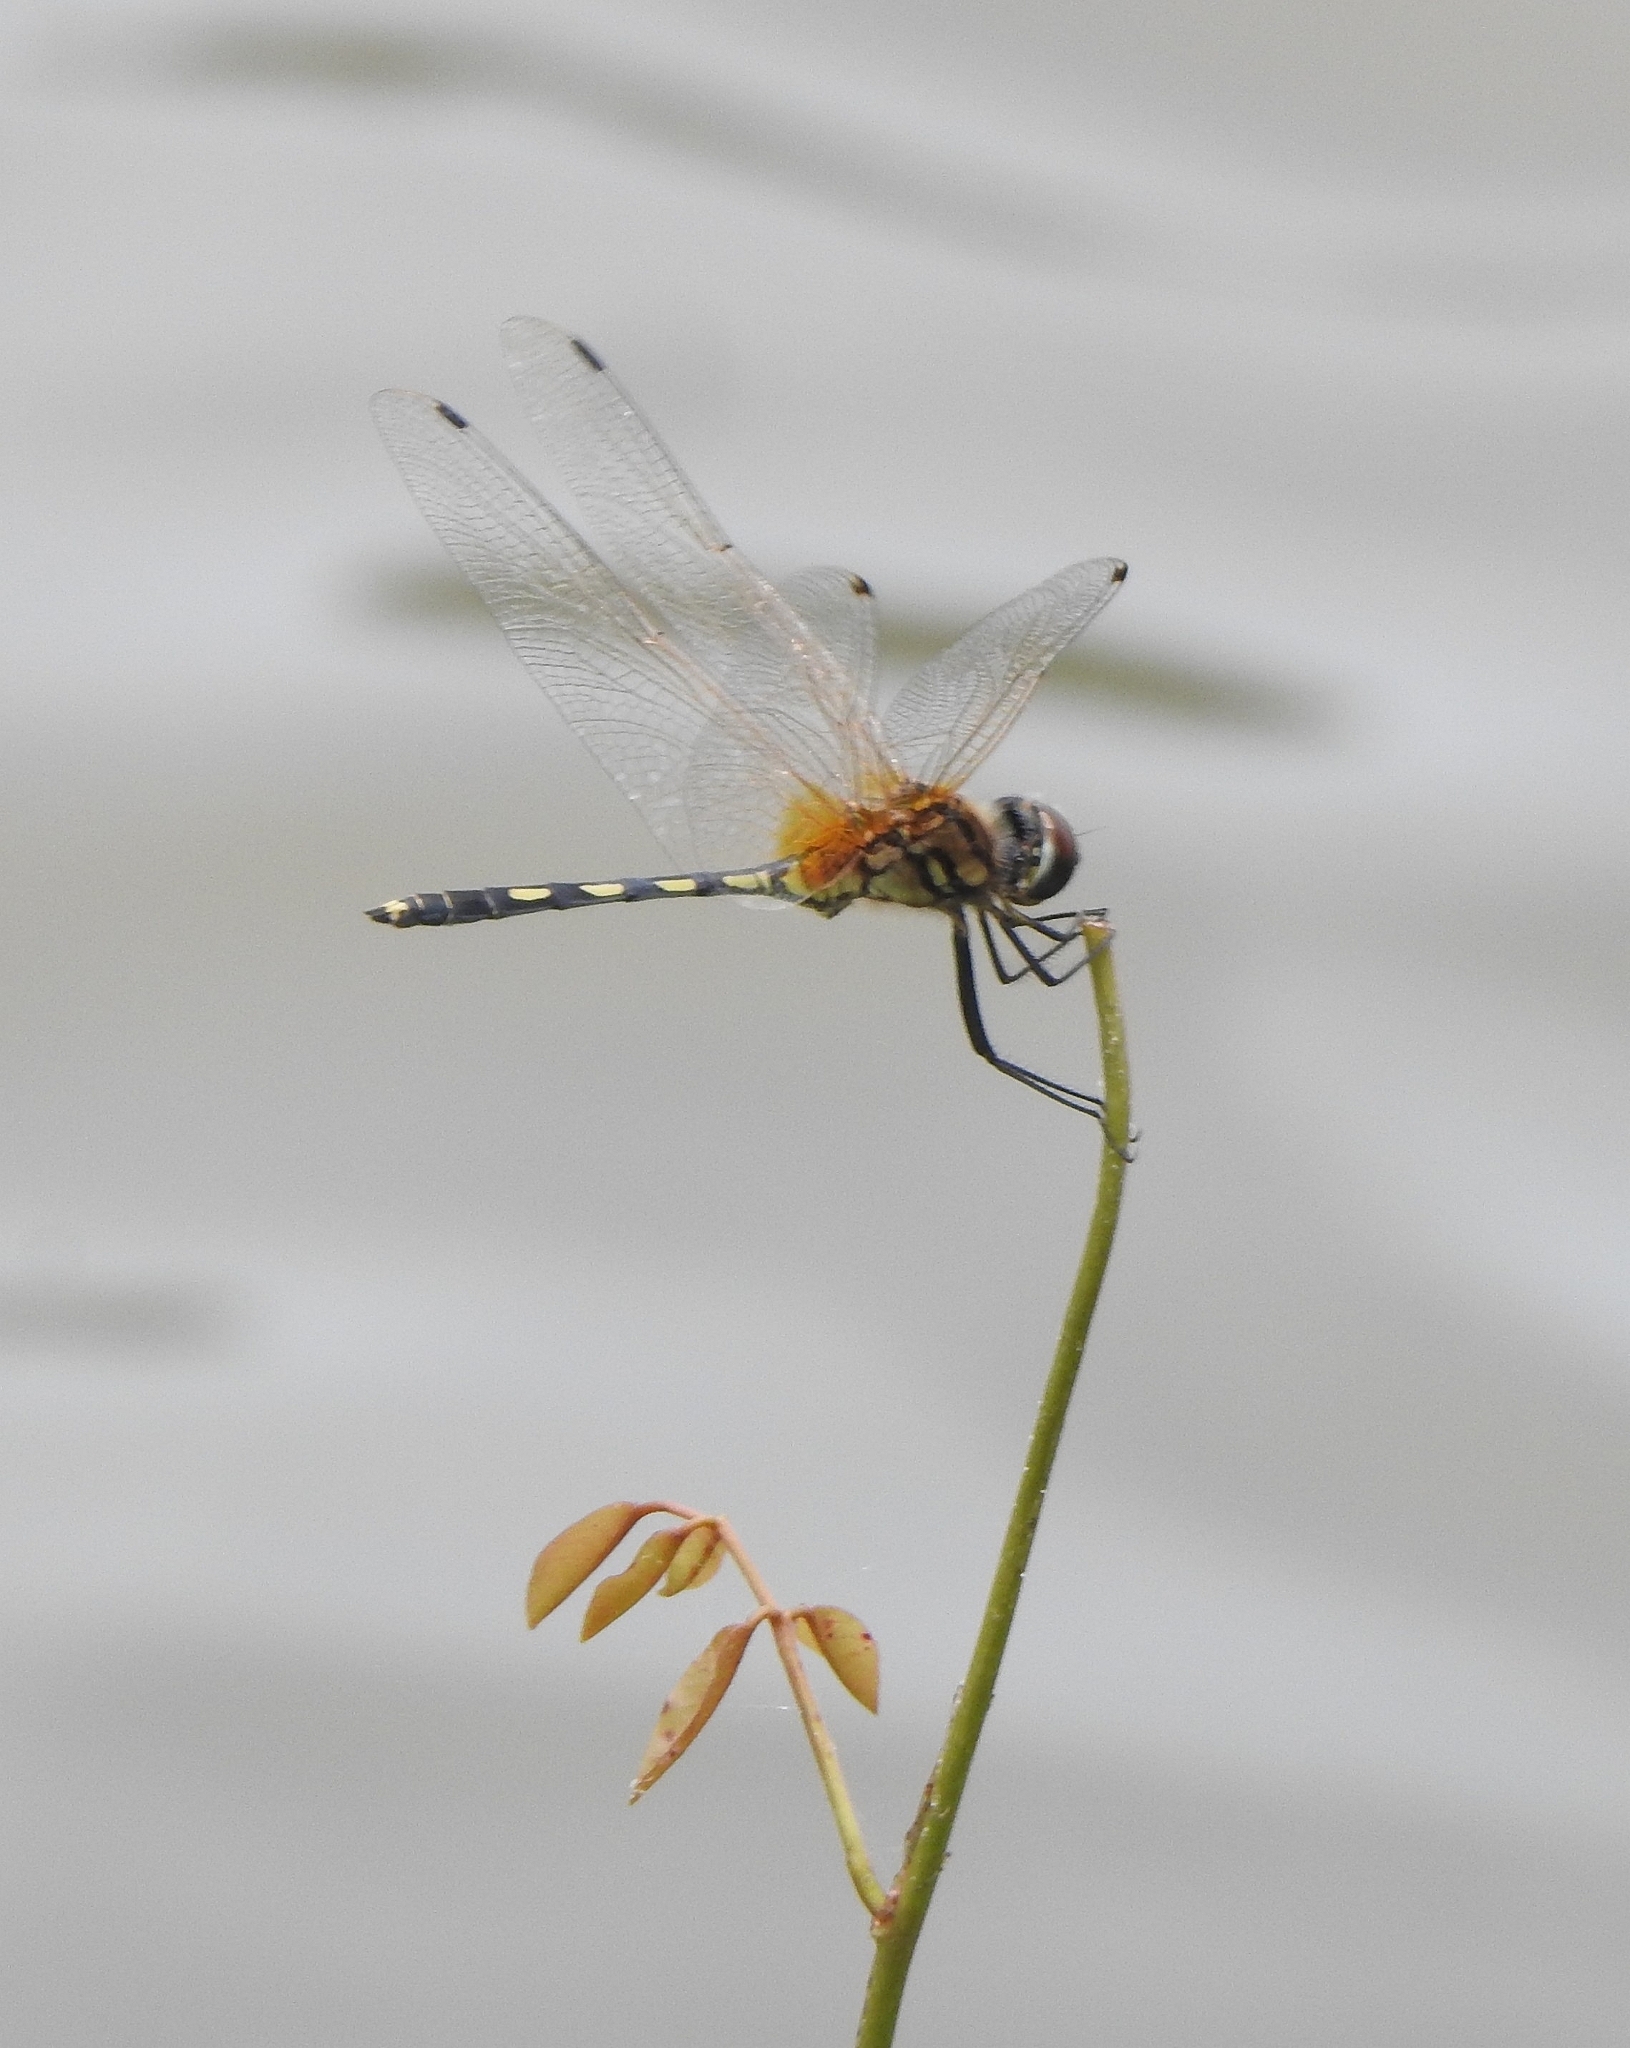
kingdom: Animalia
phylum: Arthropoda
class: Insecta
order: Odonata
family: Libellulidae
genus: Trithemis
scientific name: Trithemis pallidinervis
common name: Dancing dropwing
